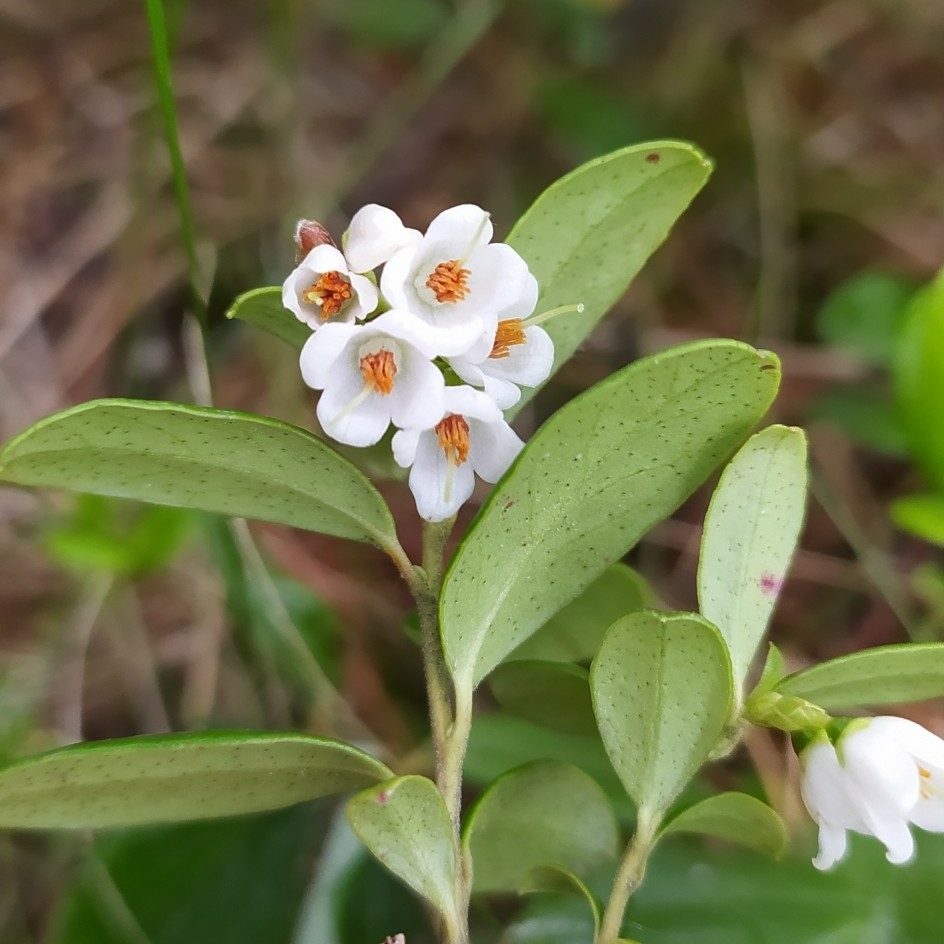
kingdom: Plantae
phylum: Tracheophyta
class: Magnoliopsida
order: Ericales
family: Ericaceae
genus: Vaccinium
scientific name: Vaccinium vitis-idaea
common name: Cowberry
